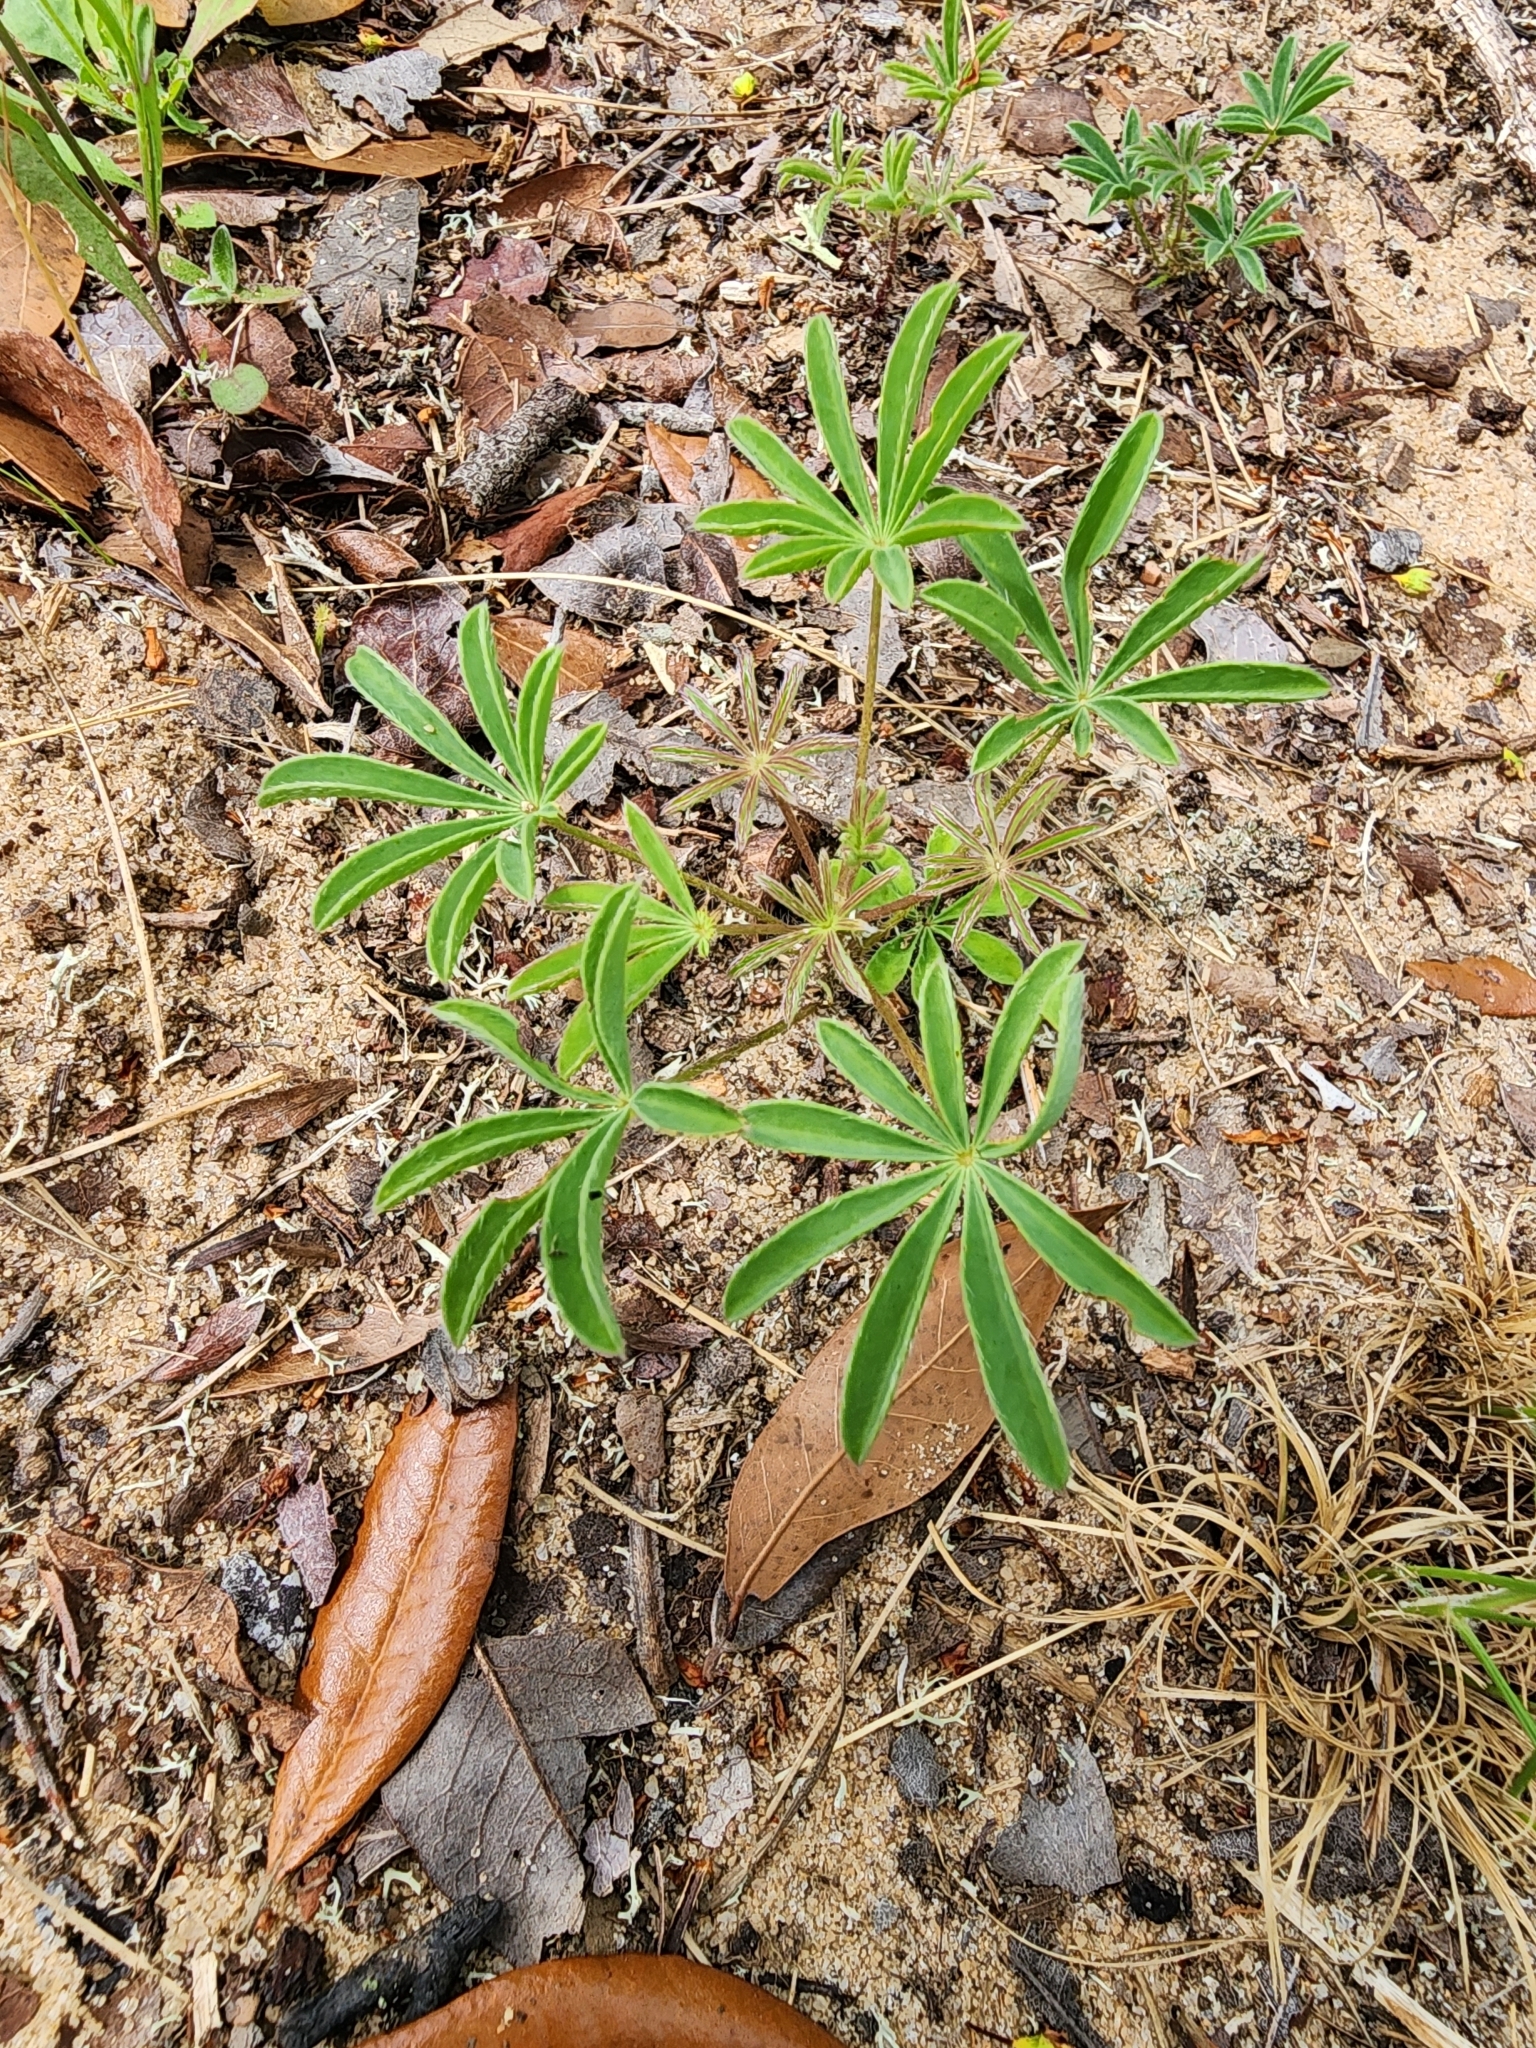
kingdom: Plantae
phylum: Tracheophyta
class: Magnoliopsida
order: Fabales
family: Fabaceae
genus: Lupinus
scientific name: Lupinus perennis
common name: Sundial lupine
